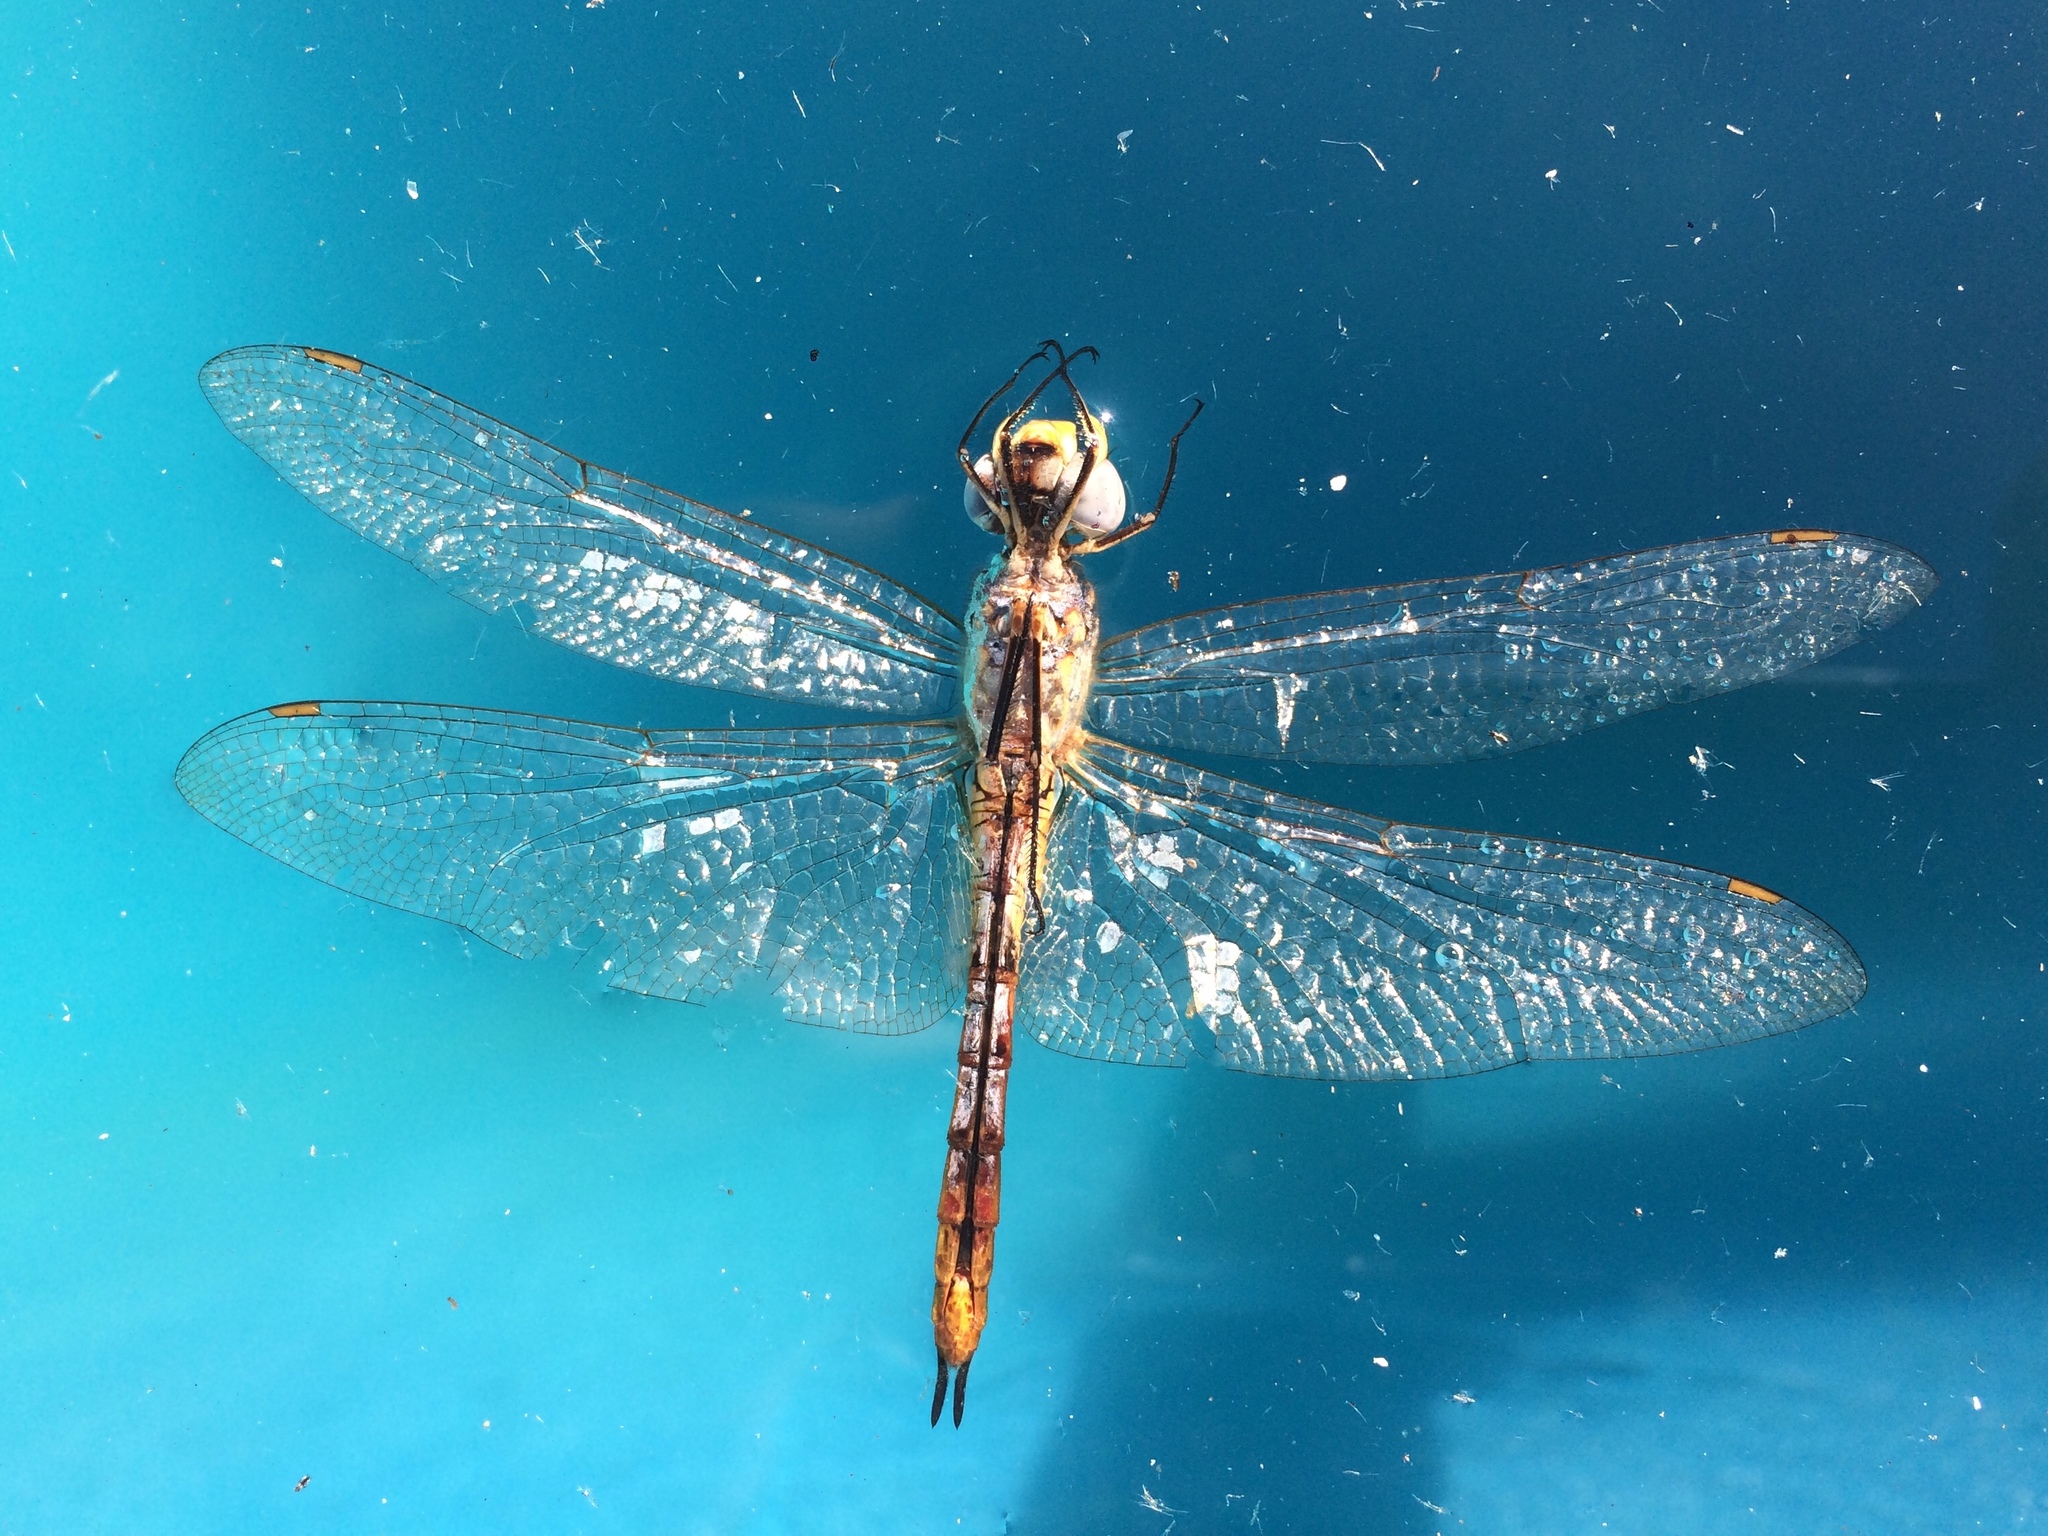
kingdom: Animalia
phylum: Arthropoda
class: Insecta
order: Odonata
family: Libellulidae
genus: Pantala
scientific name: Pantala flavescens
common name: Wandering glider
